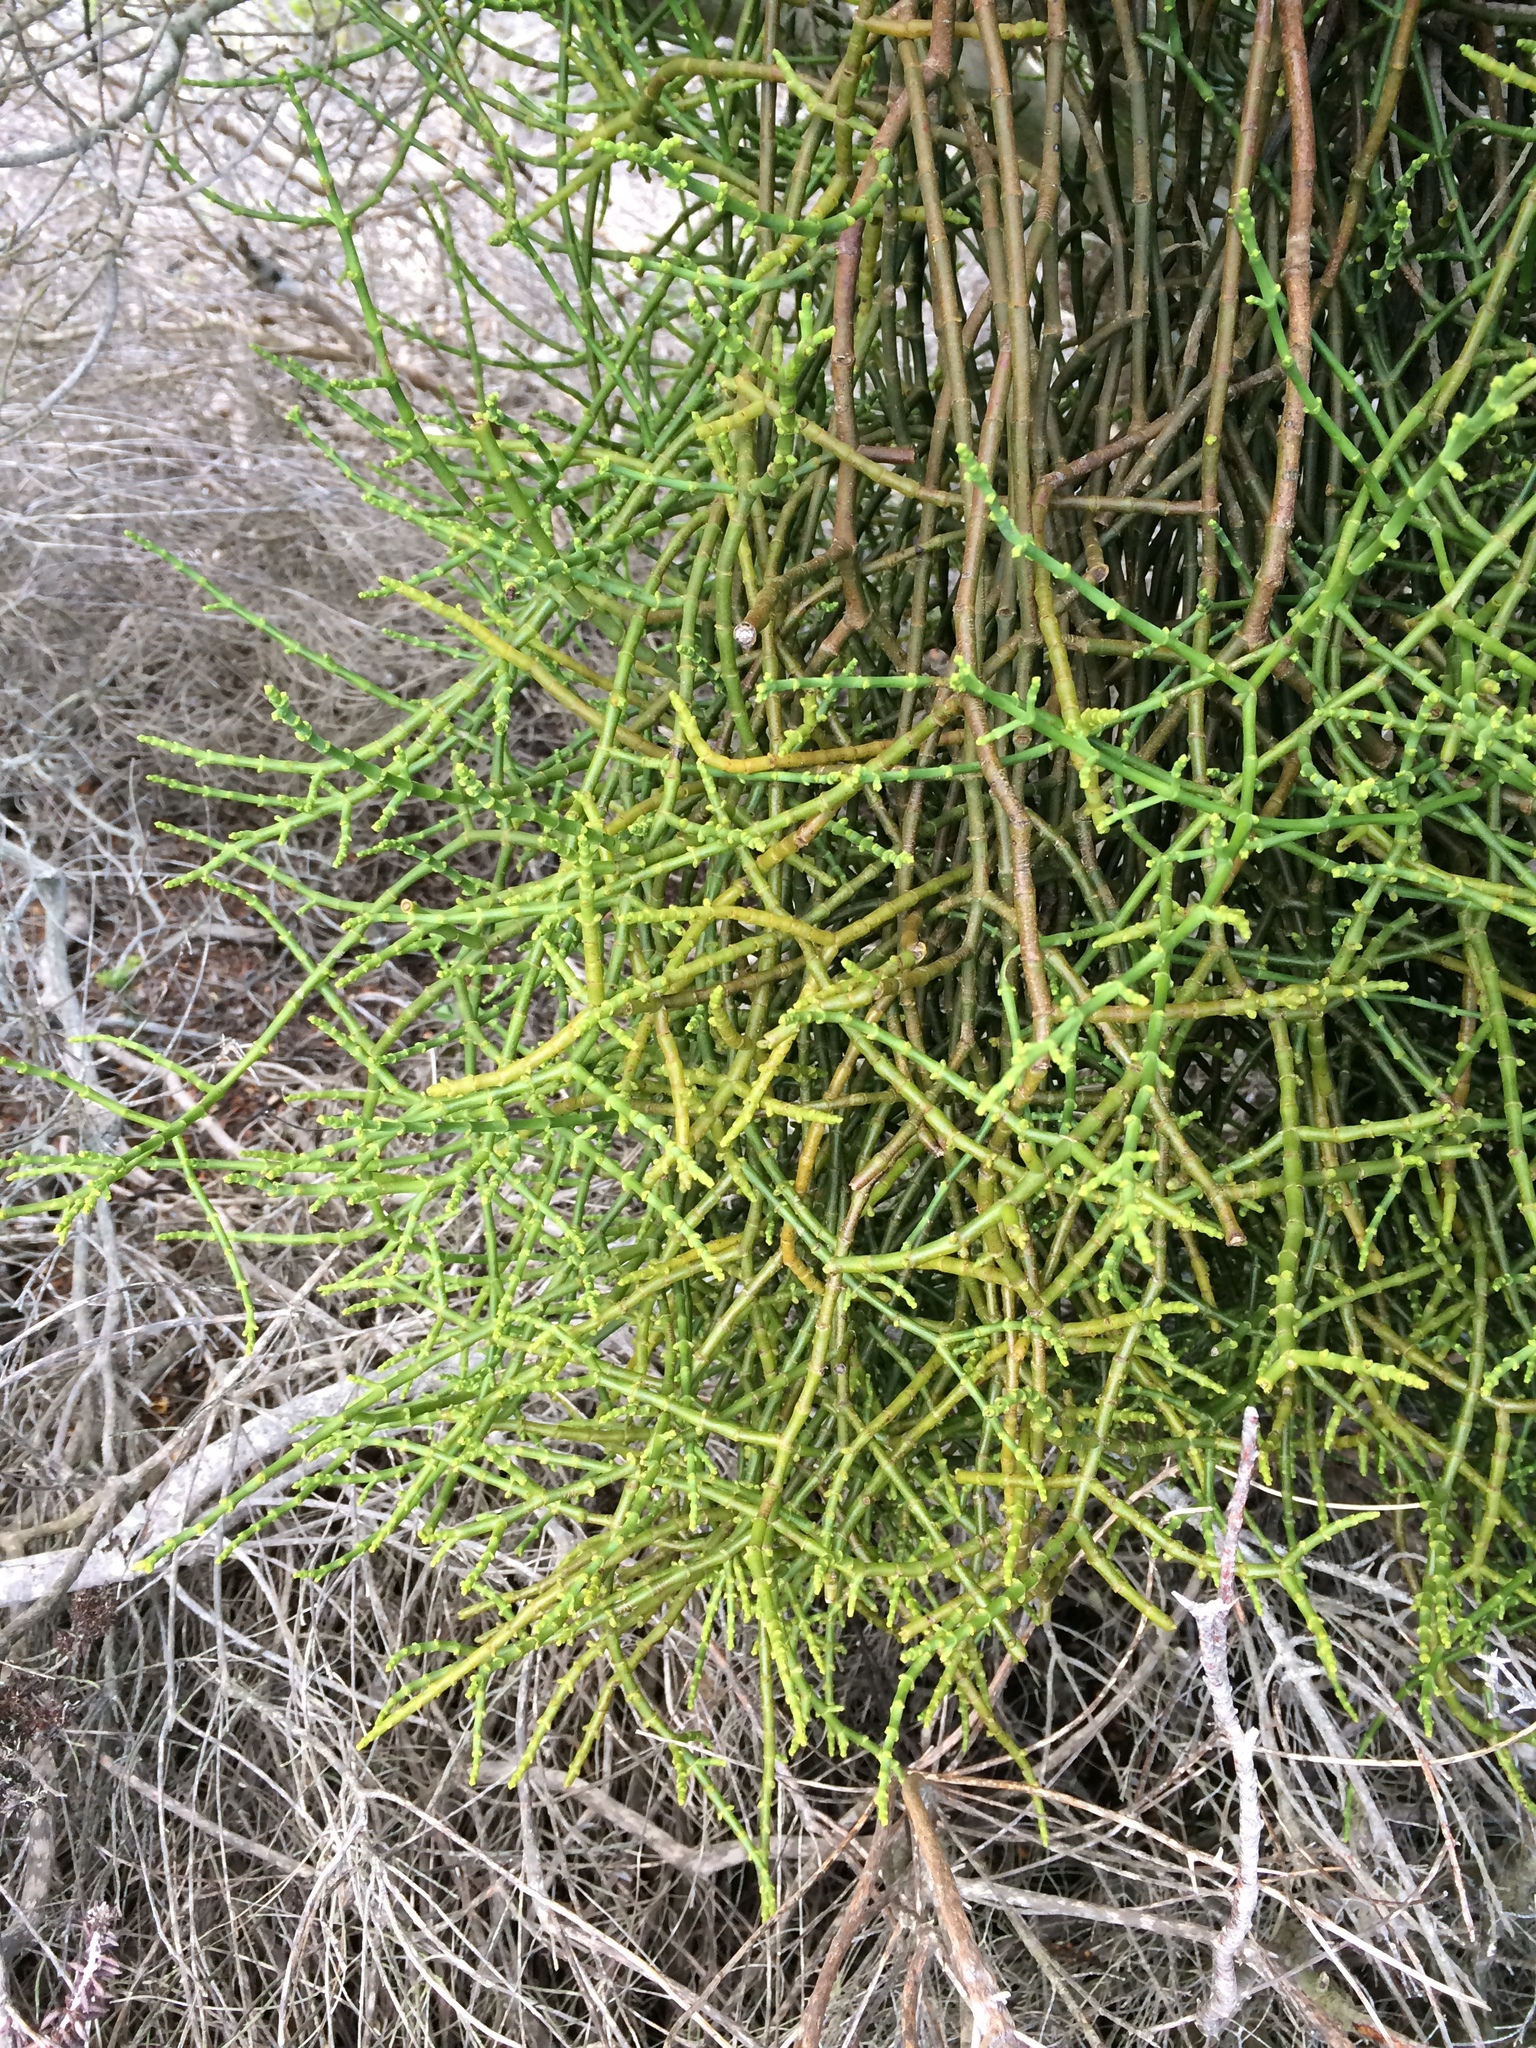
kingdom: Plantae
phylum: Tracheophyta
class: Magnoliopsida
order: Santalales
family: Viscaceae
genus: Viscum
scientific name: Viscum capense
